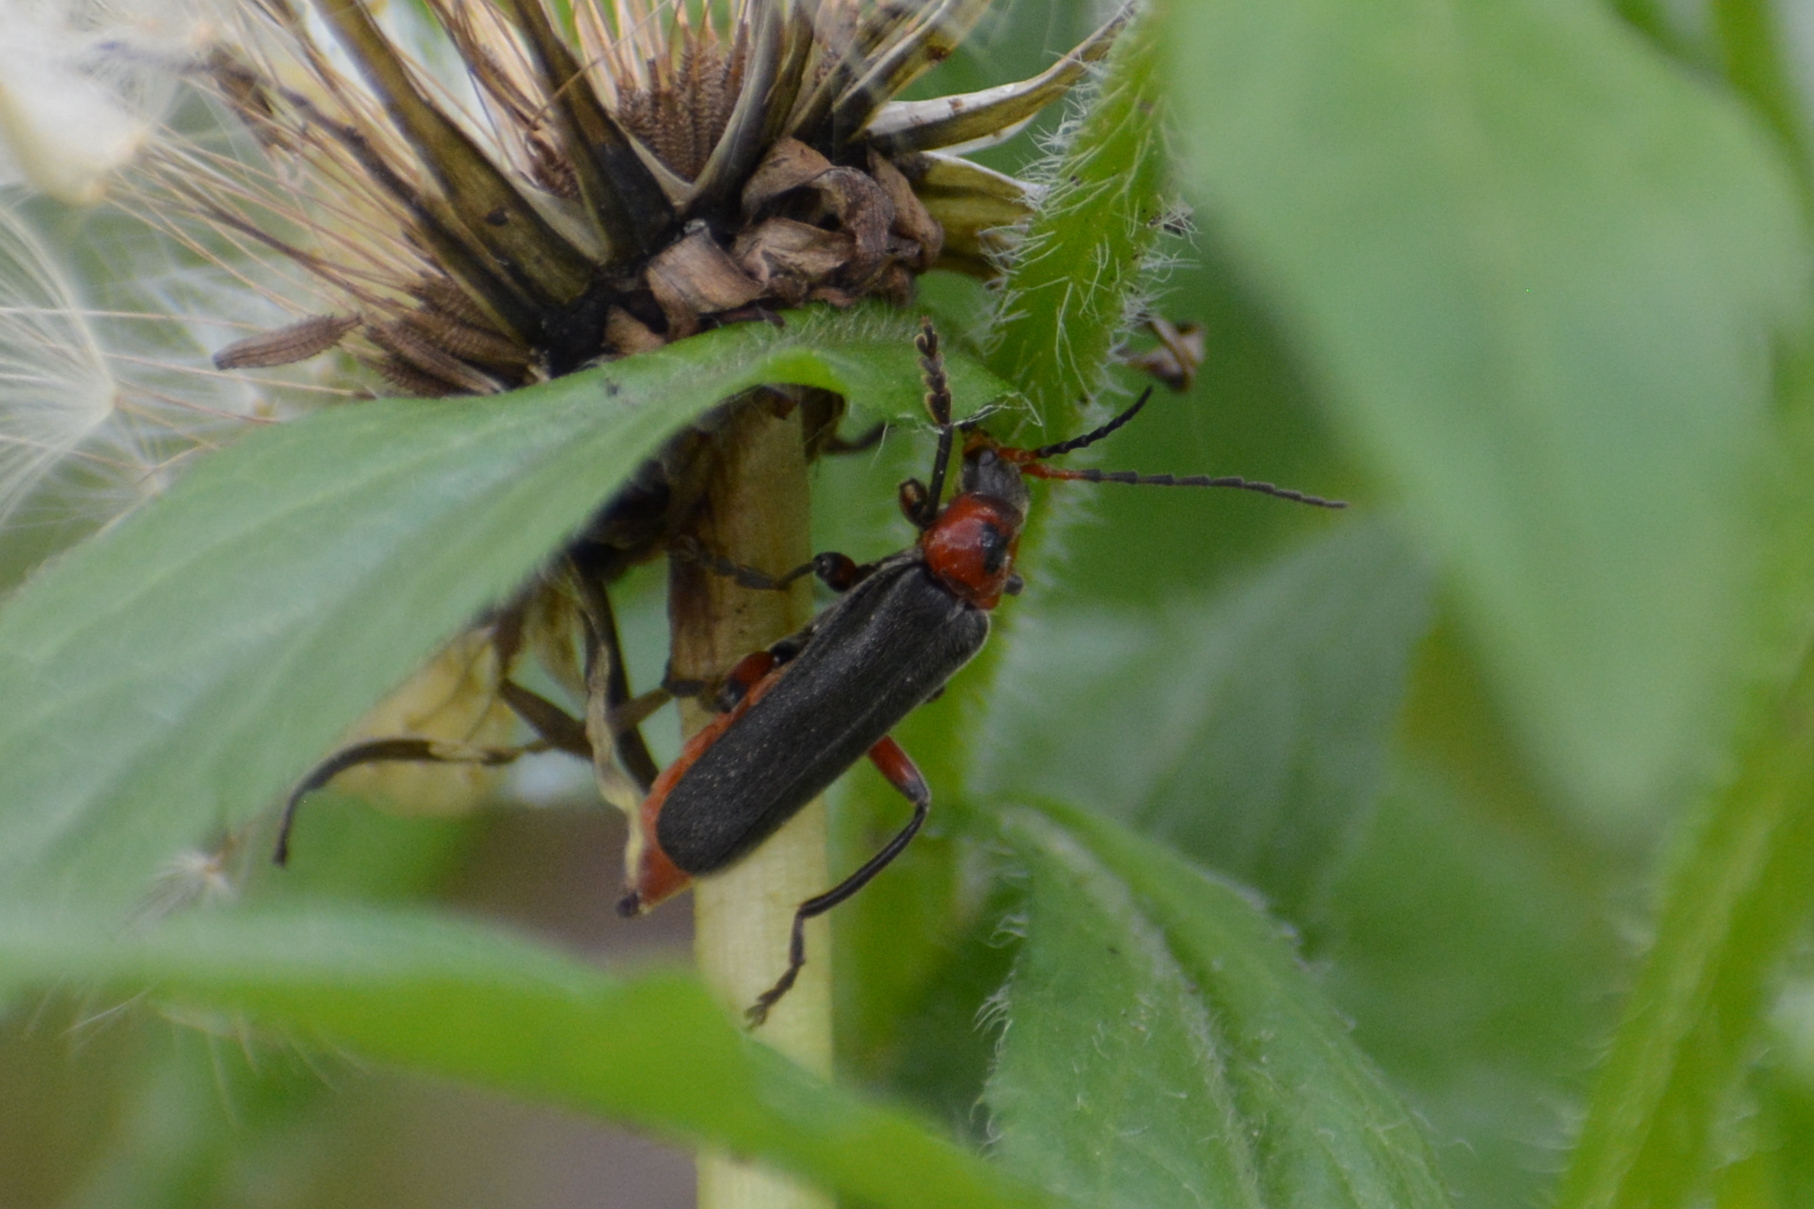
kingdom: Animalia
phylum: Arthropoda
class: Insecta
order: Coleoptera
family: Cantharidae
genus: Cantharis
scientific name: Cantharis rustica
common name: Soldier beetle
